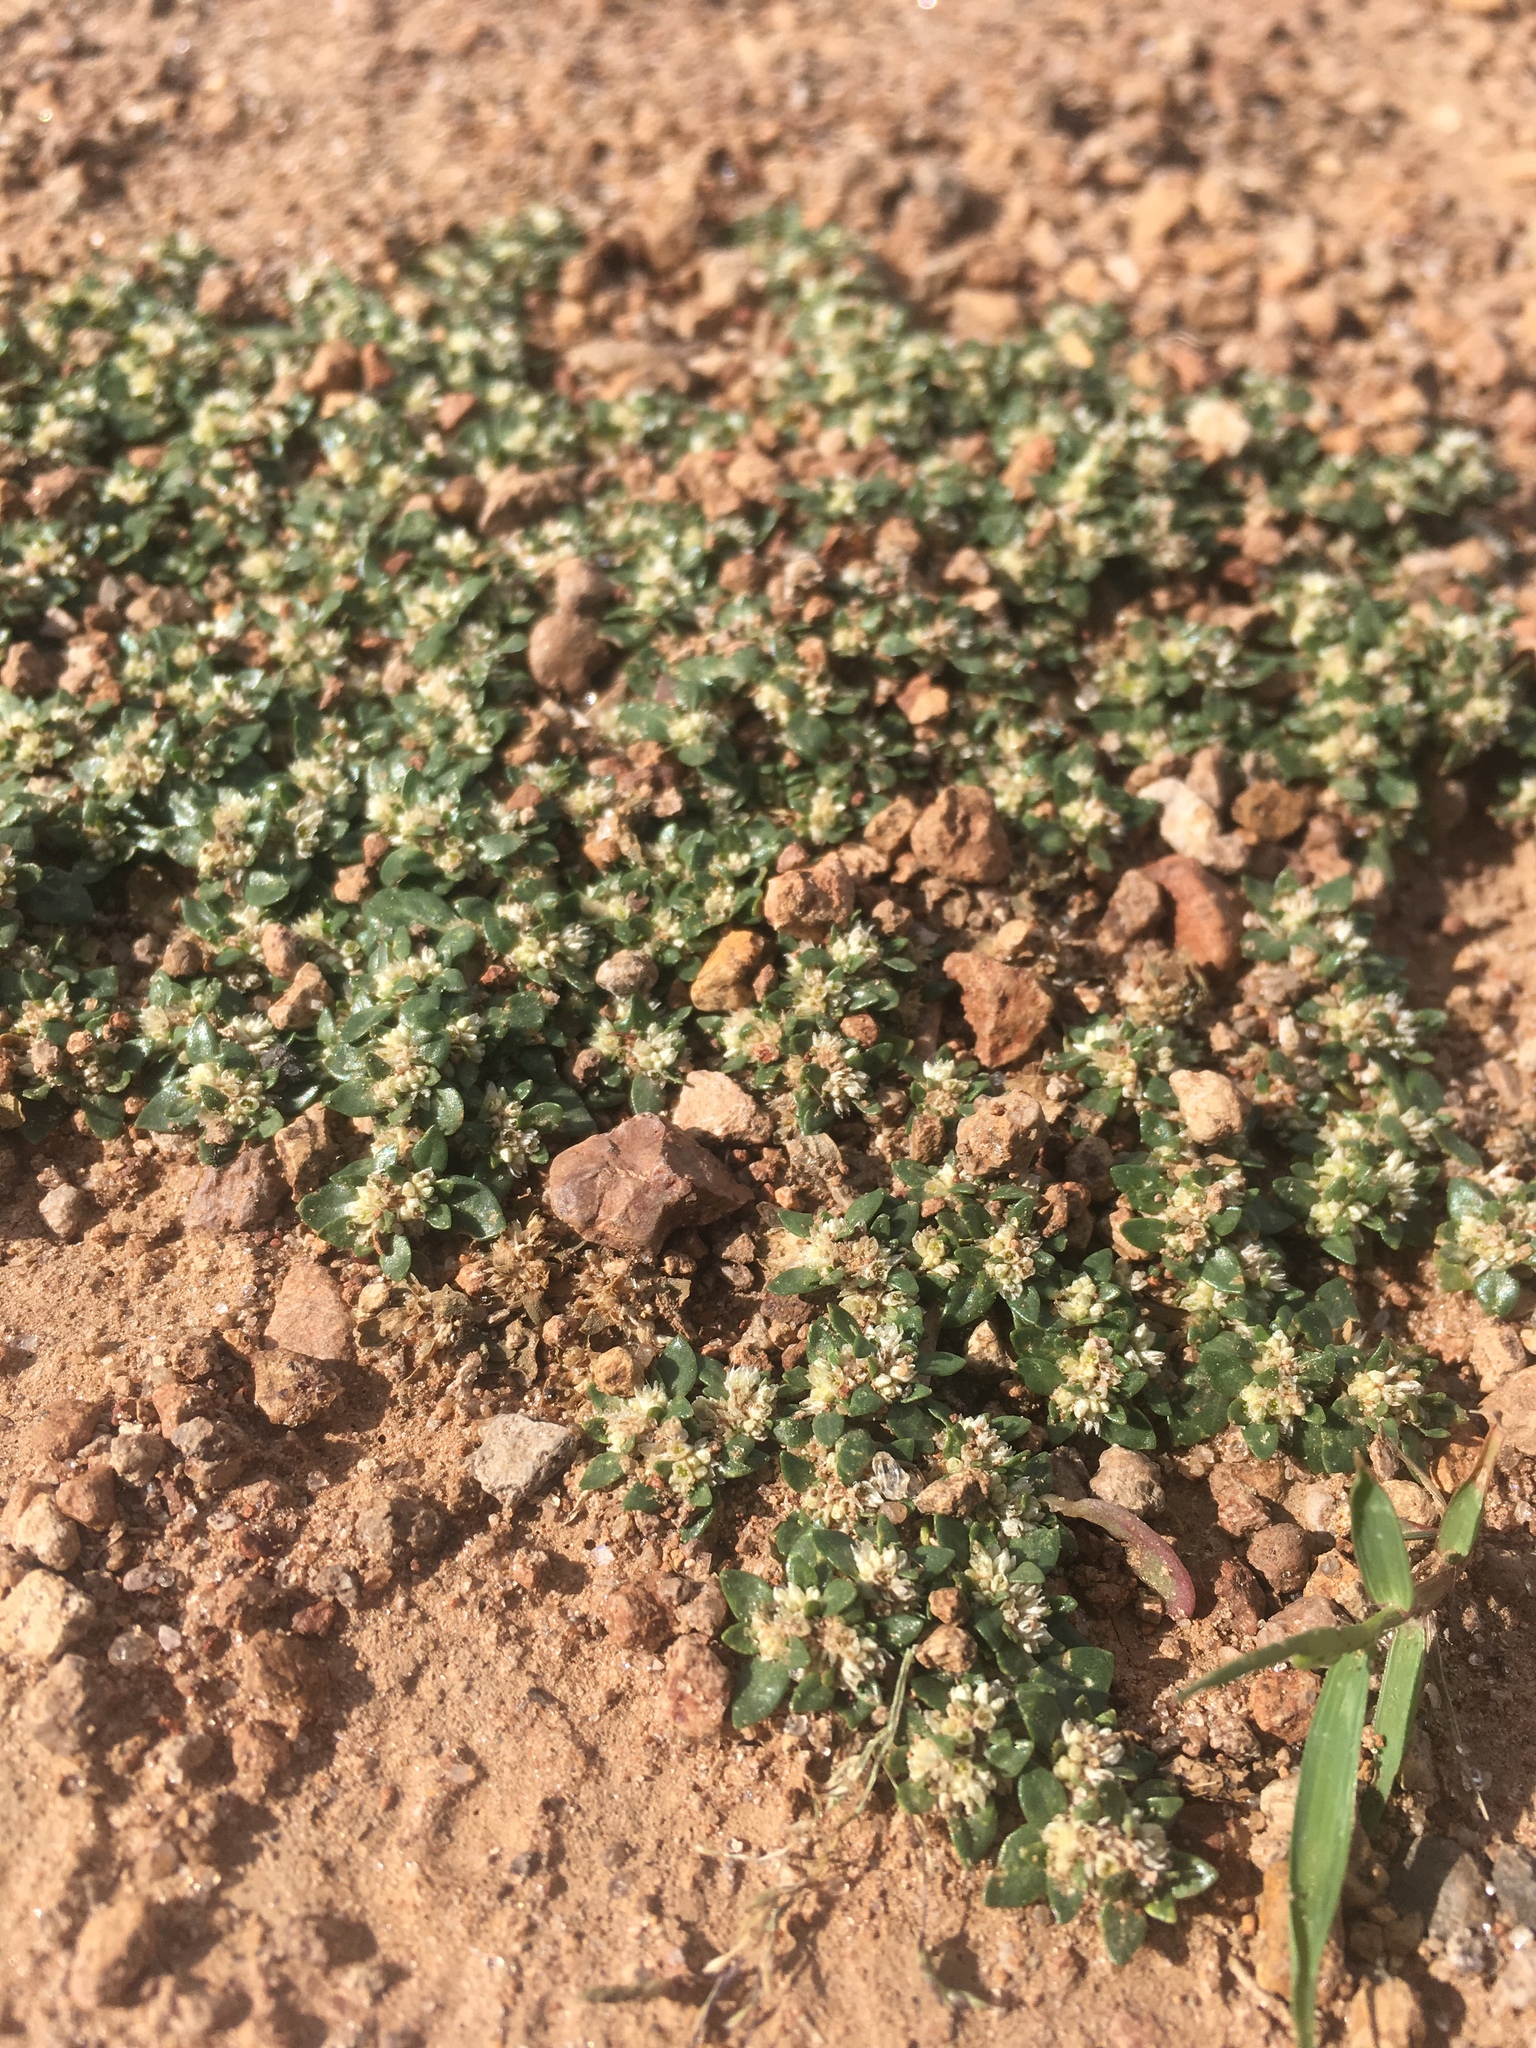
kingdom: Plantae
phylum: Tracheophyta
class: Magnoliopsida
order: Caryophyllales
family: Amaranthaceae
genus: Guilleminea
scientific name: Guilleminea densa
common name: Small matweed
